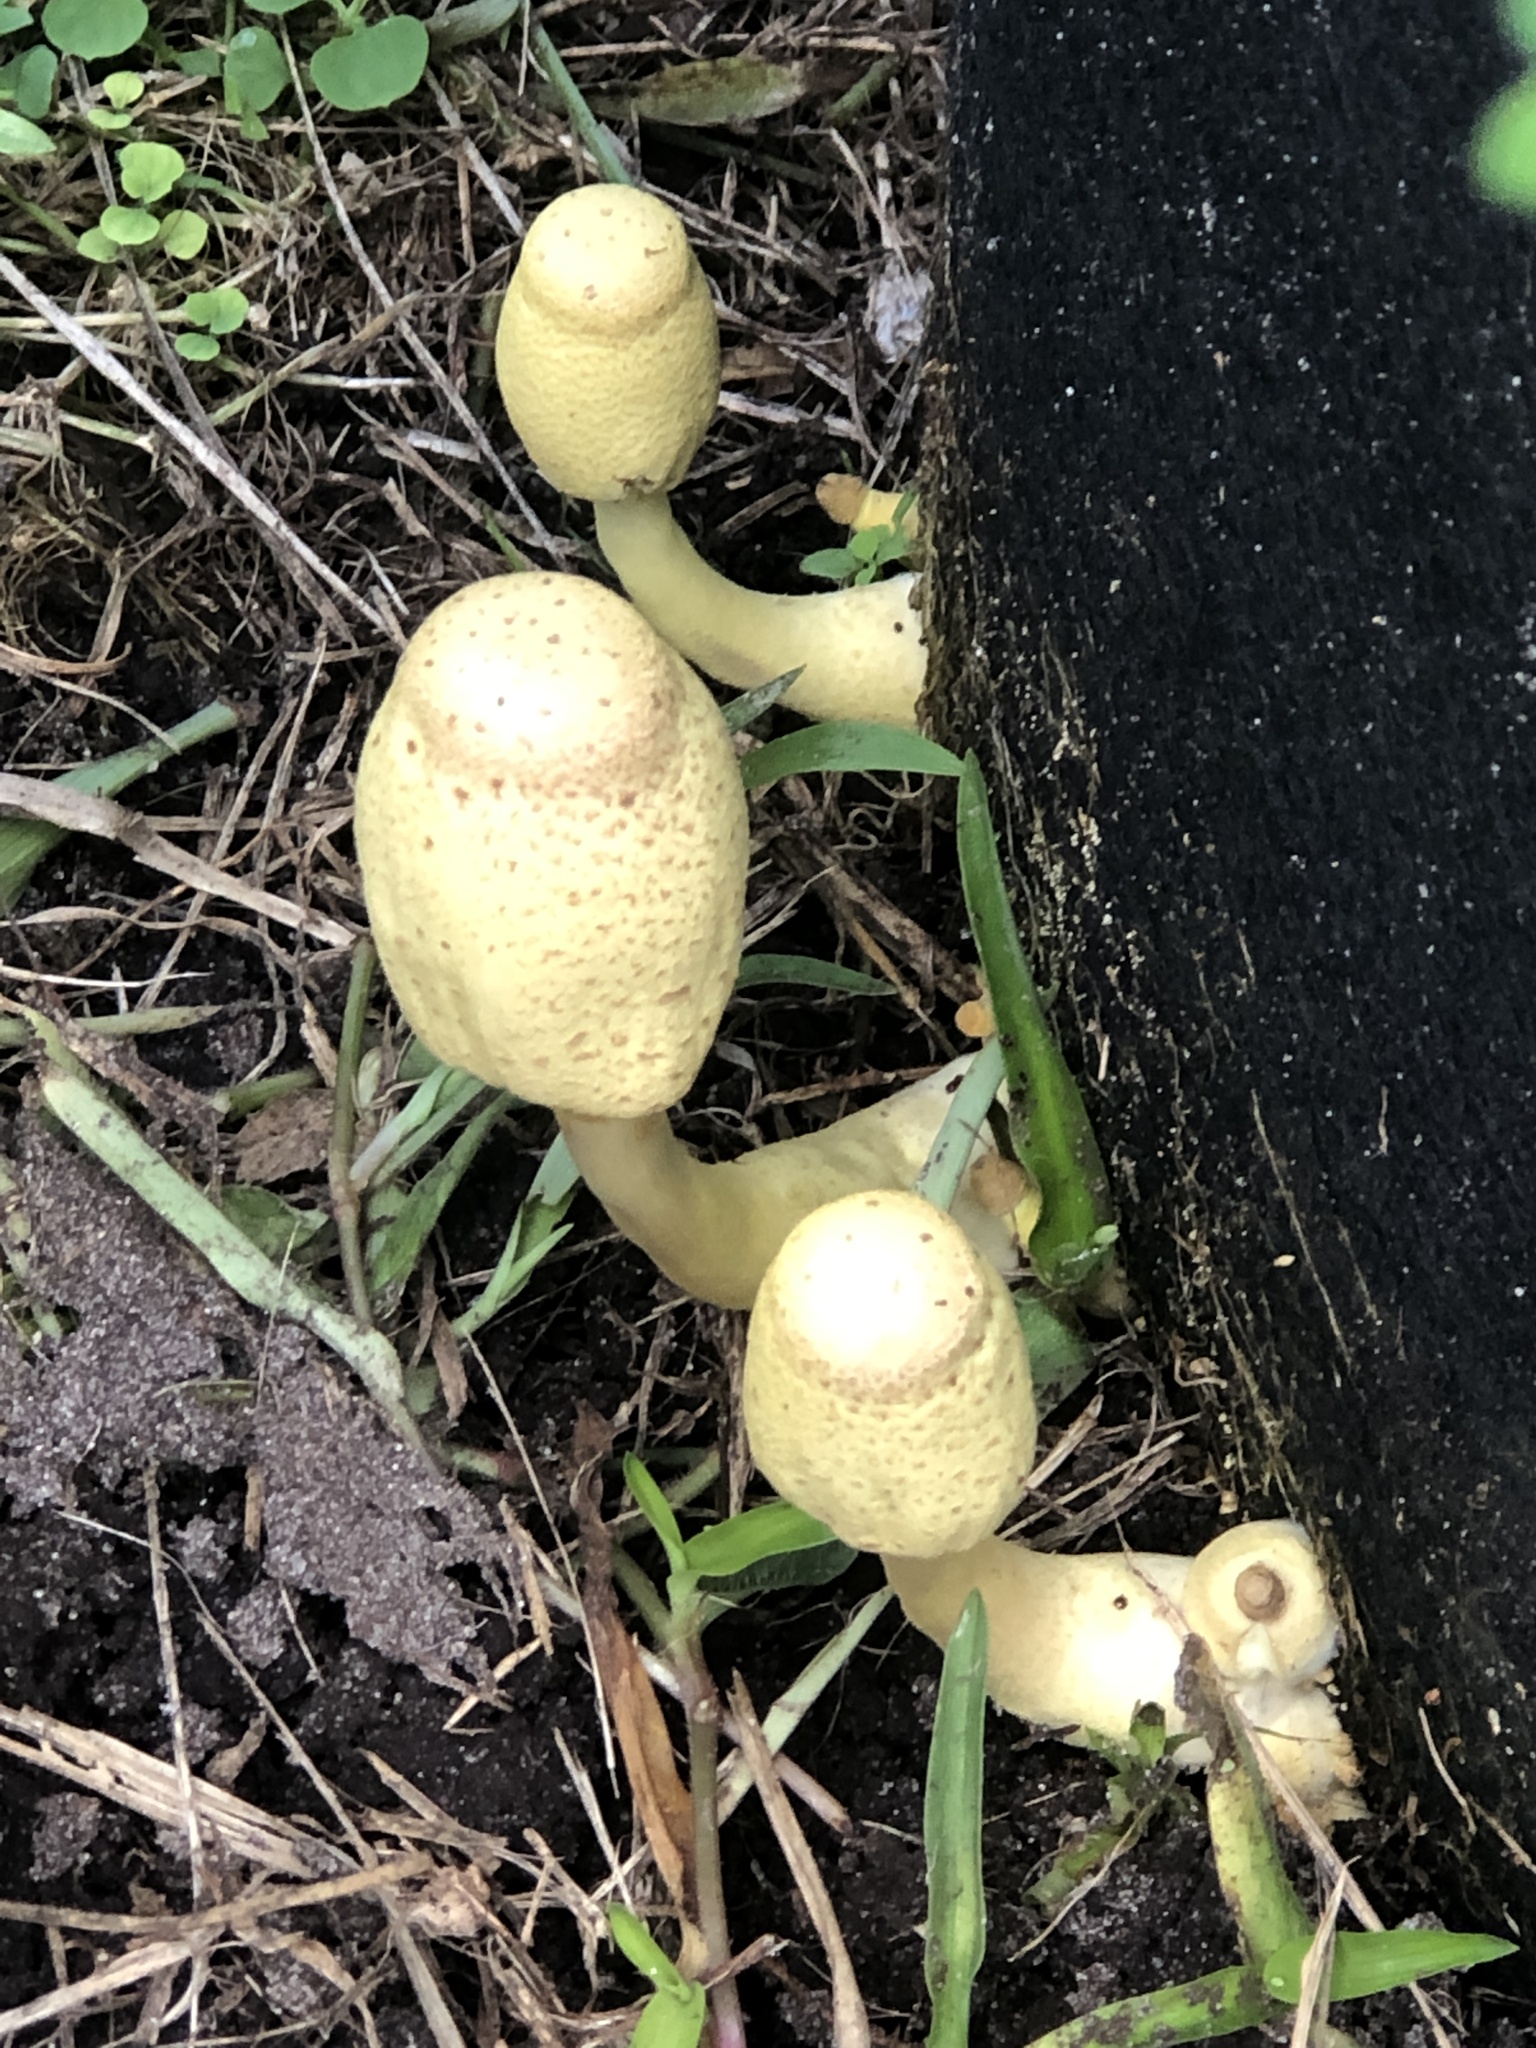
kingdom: Fungi
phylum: Basidiomycota
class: Agaricomycetes
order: Agaricales
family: Agaricaceae
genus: Leucocoprinus
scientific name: Leucocoprinus birnbaumii
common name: Plantpot dapperling
